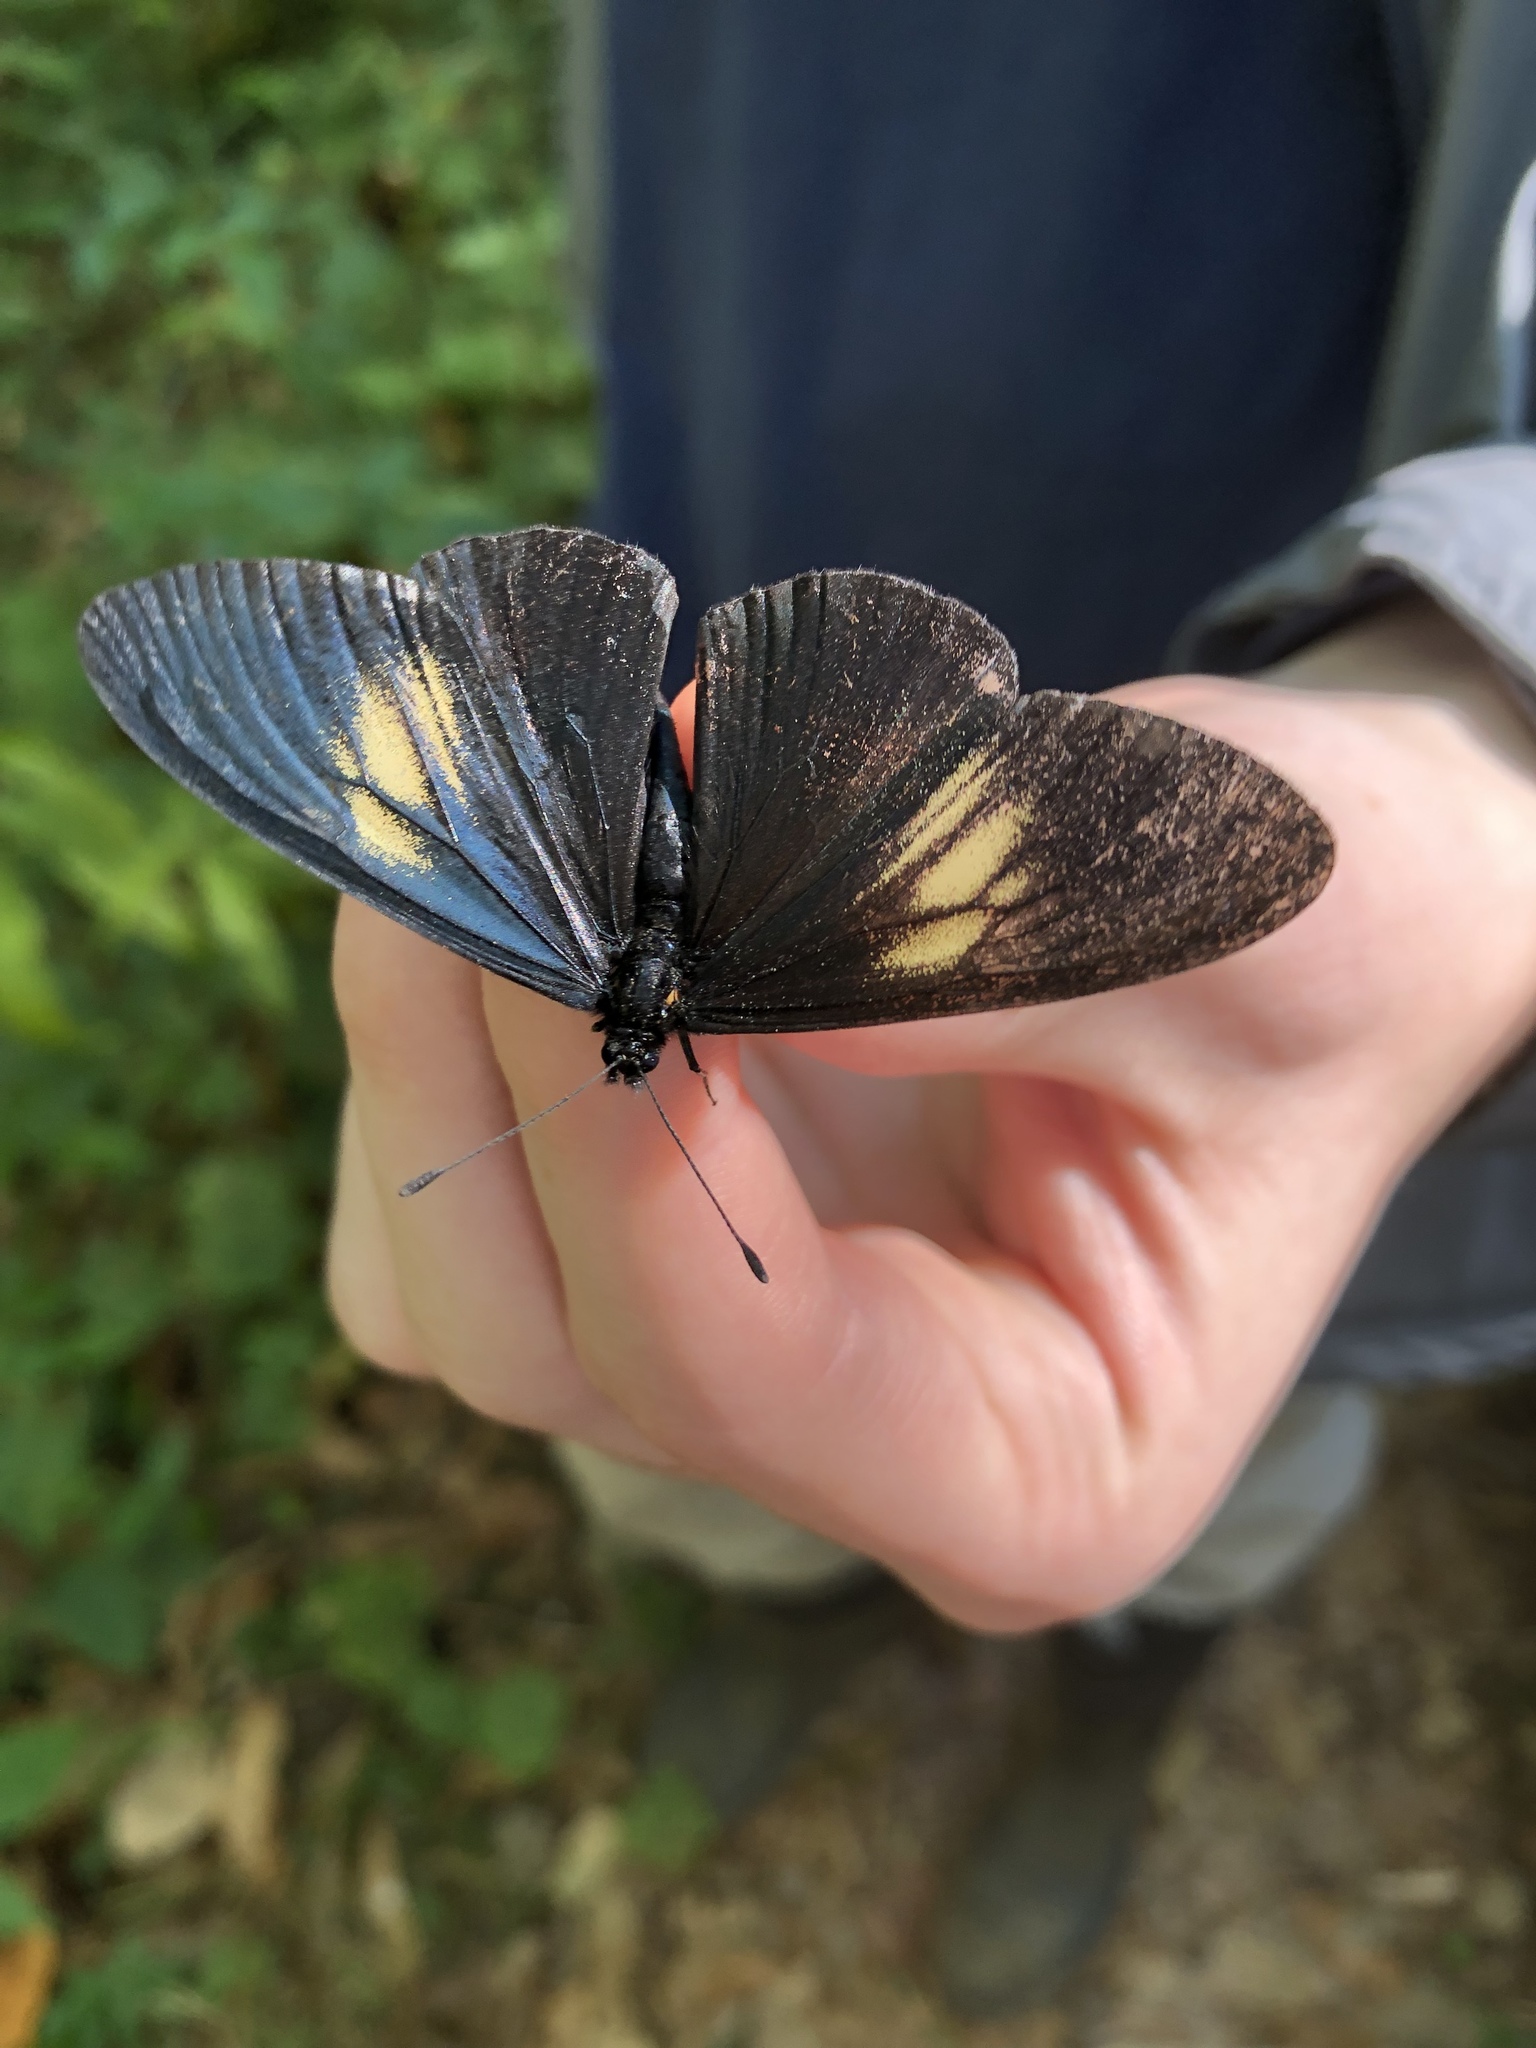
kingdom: Animalia
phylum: Arthropoda
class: Insecta
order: Lepidoptera
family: Nymphalidae
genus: Acraea
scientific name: Acraea Altinote ozomene
